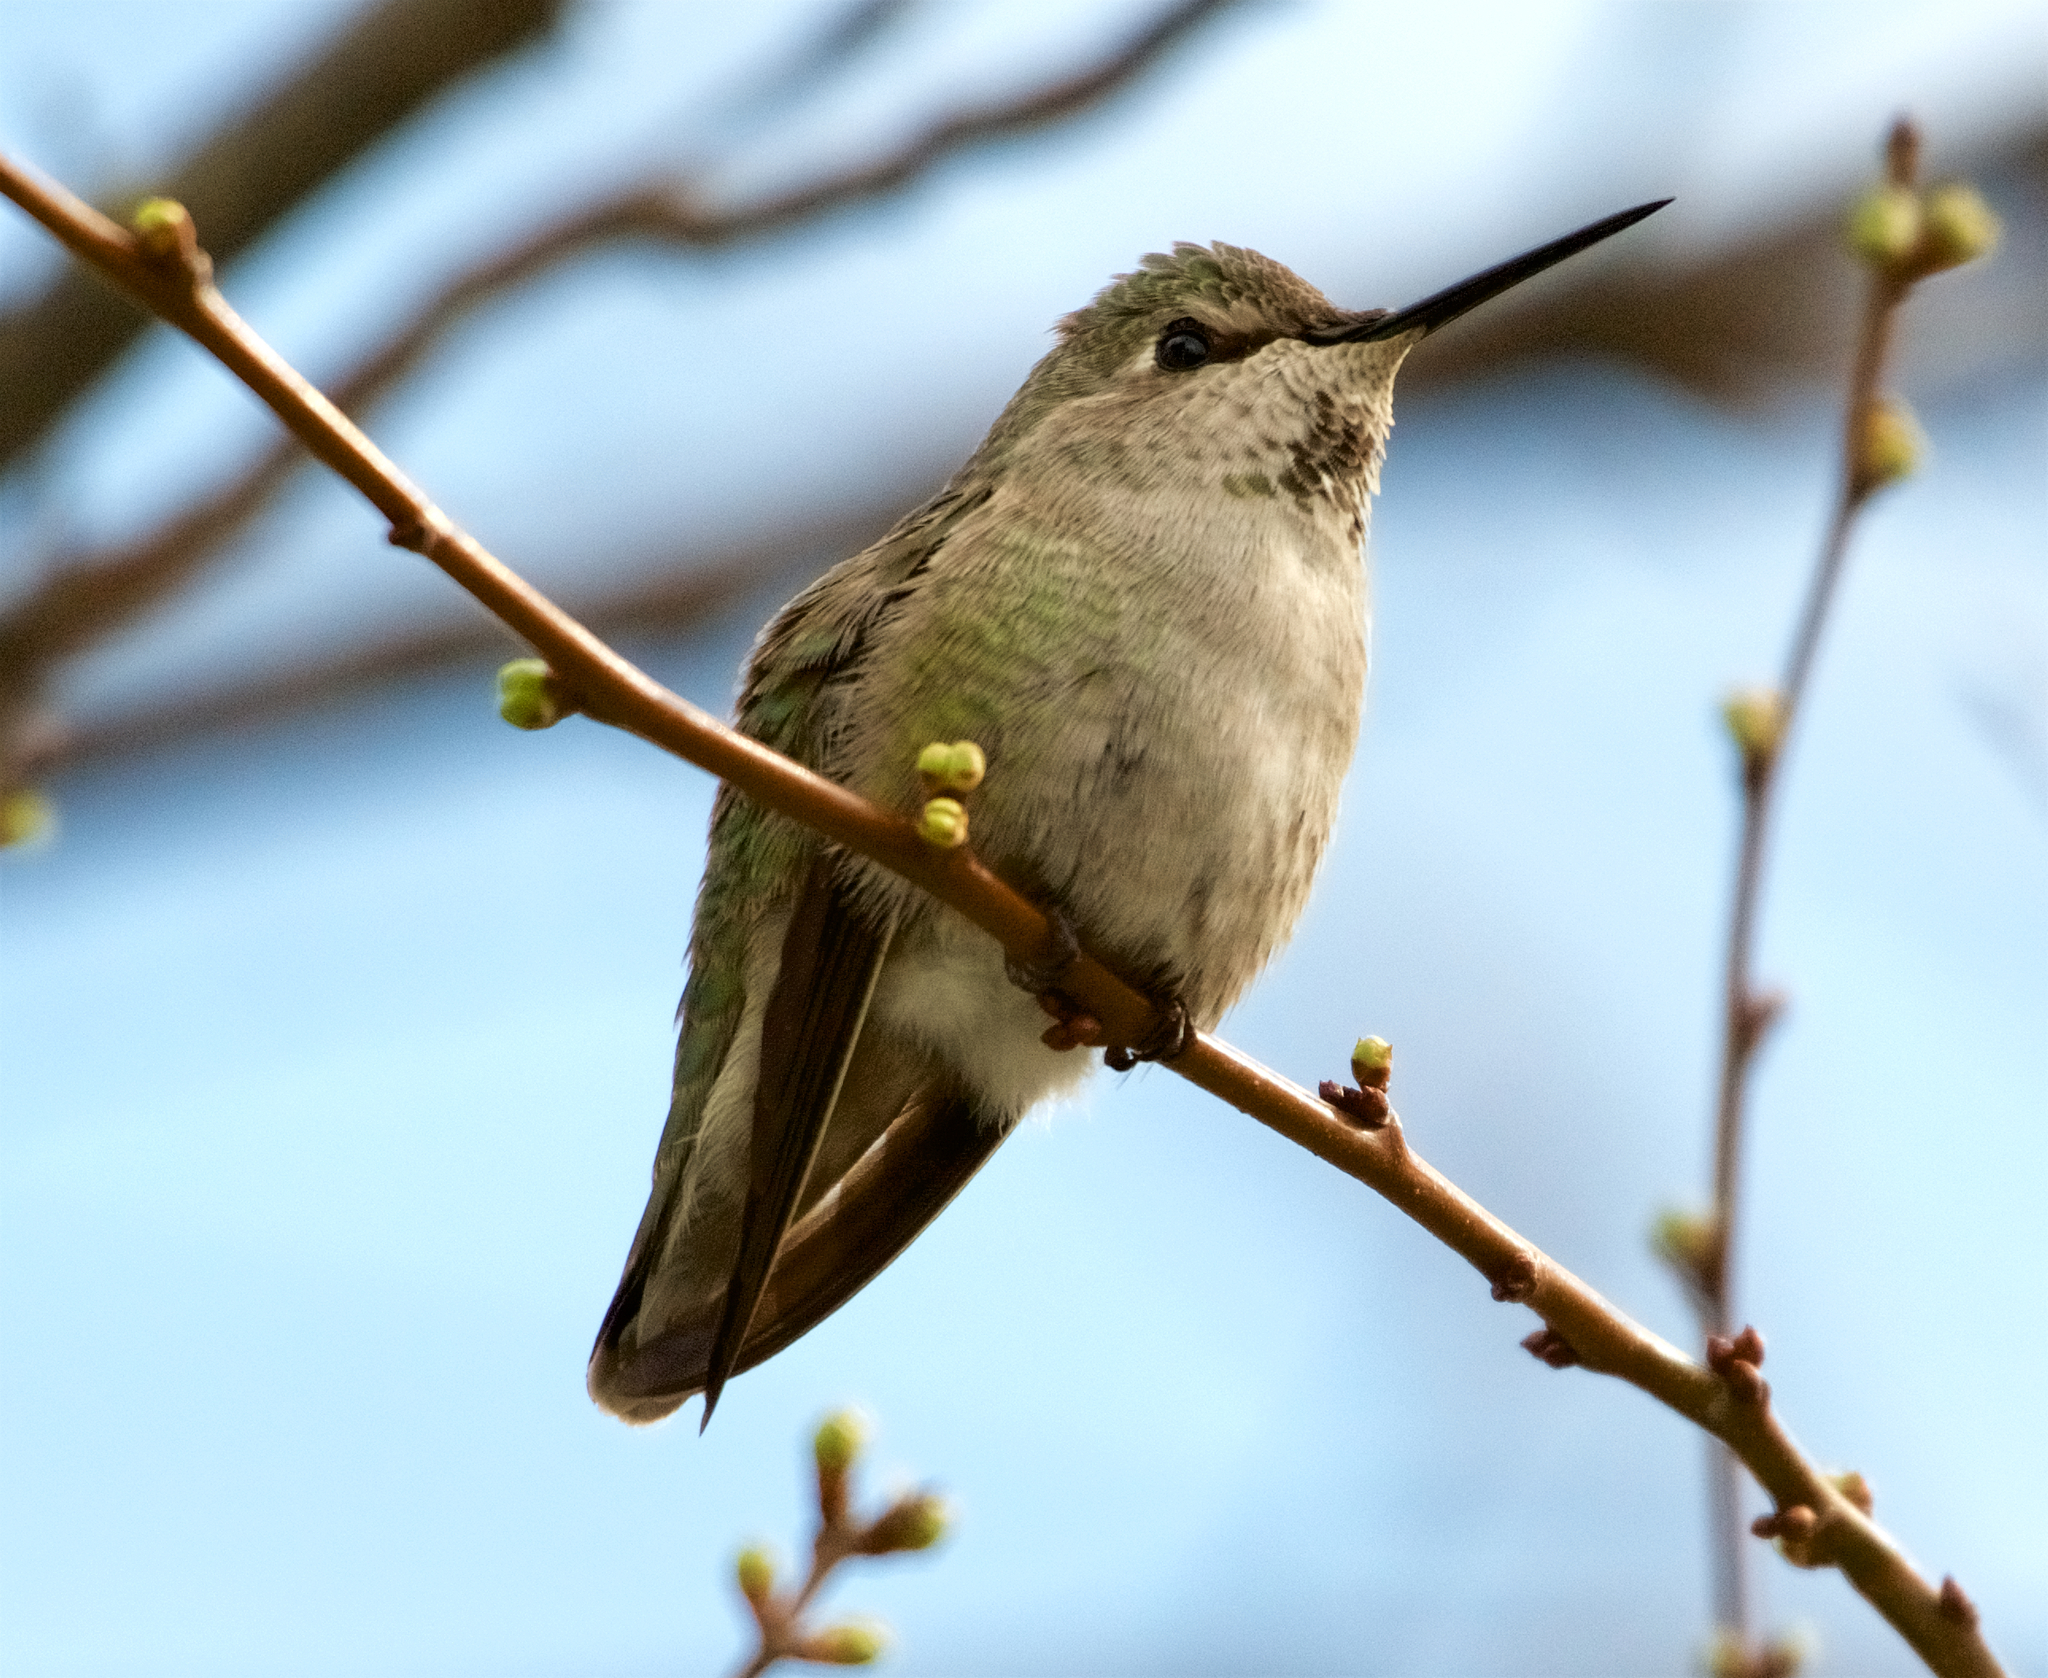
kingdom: Animalia
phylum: Chordata
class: Aves
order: Apodiformes
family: Trochilidae
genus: Calypte
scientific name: Calypte anna
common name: Anna's hummingbird
